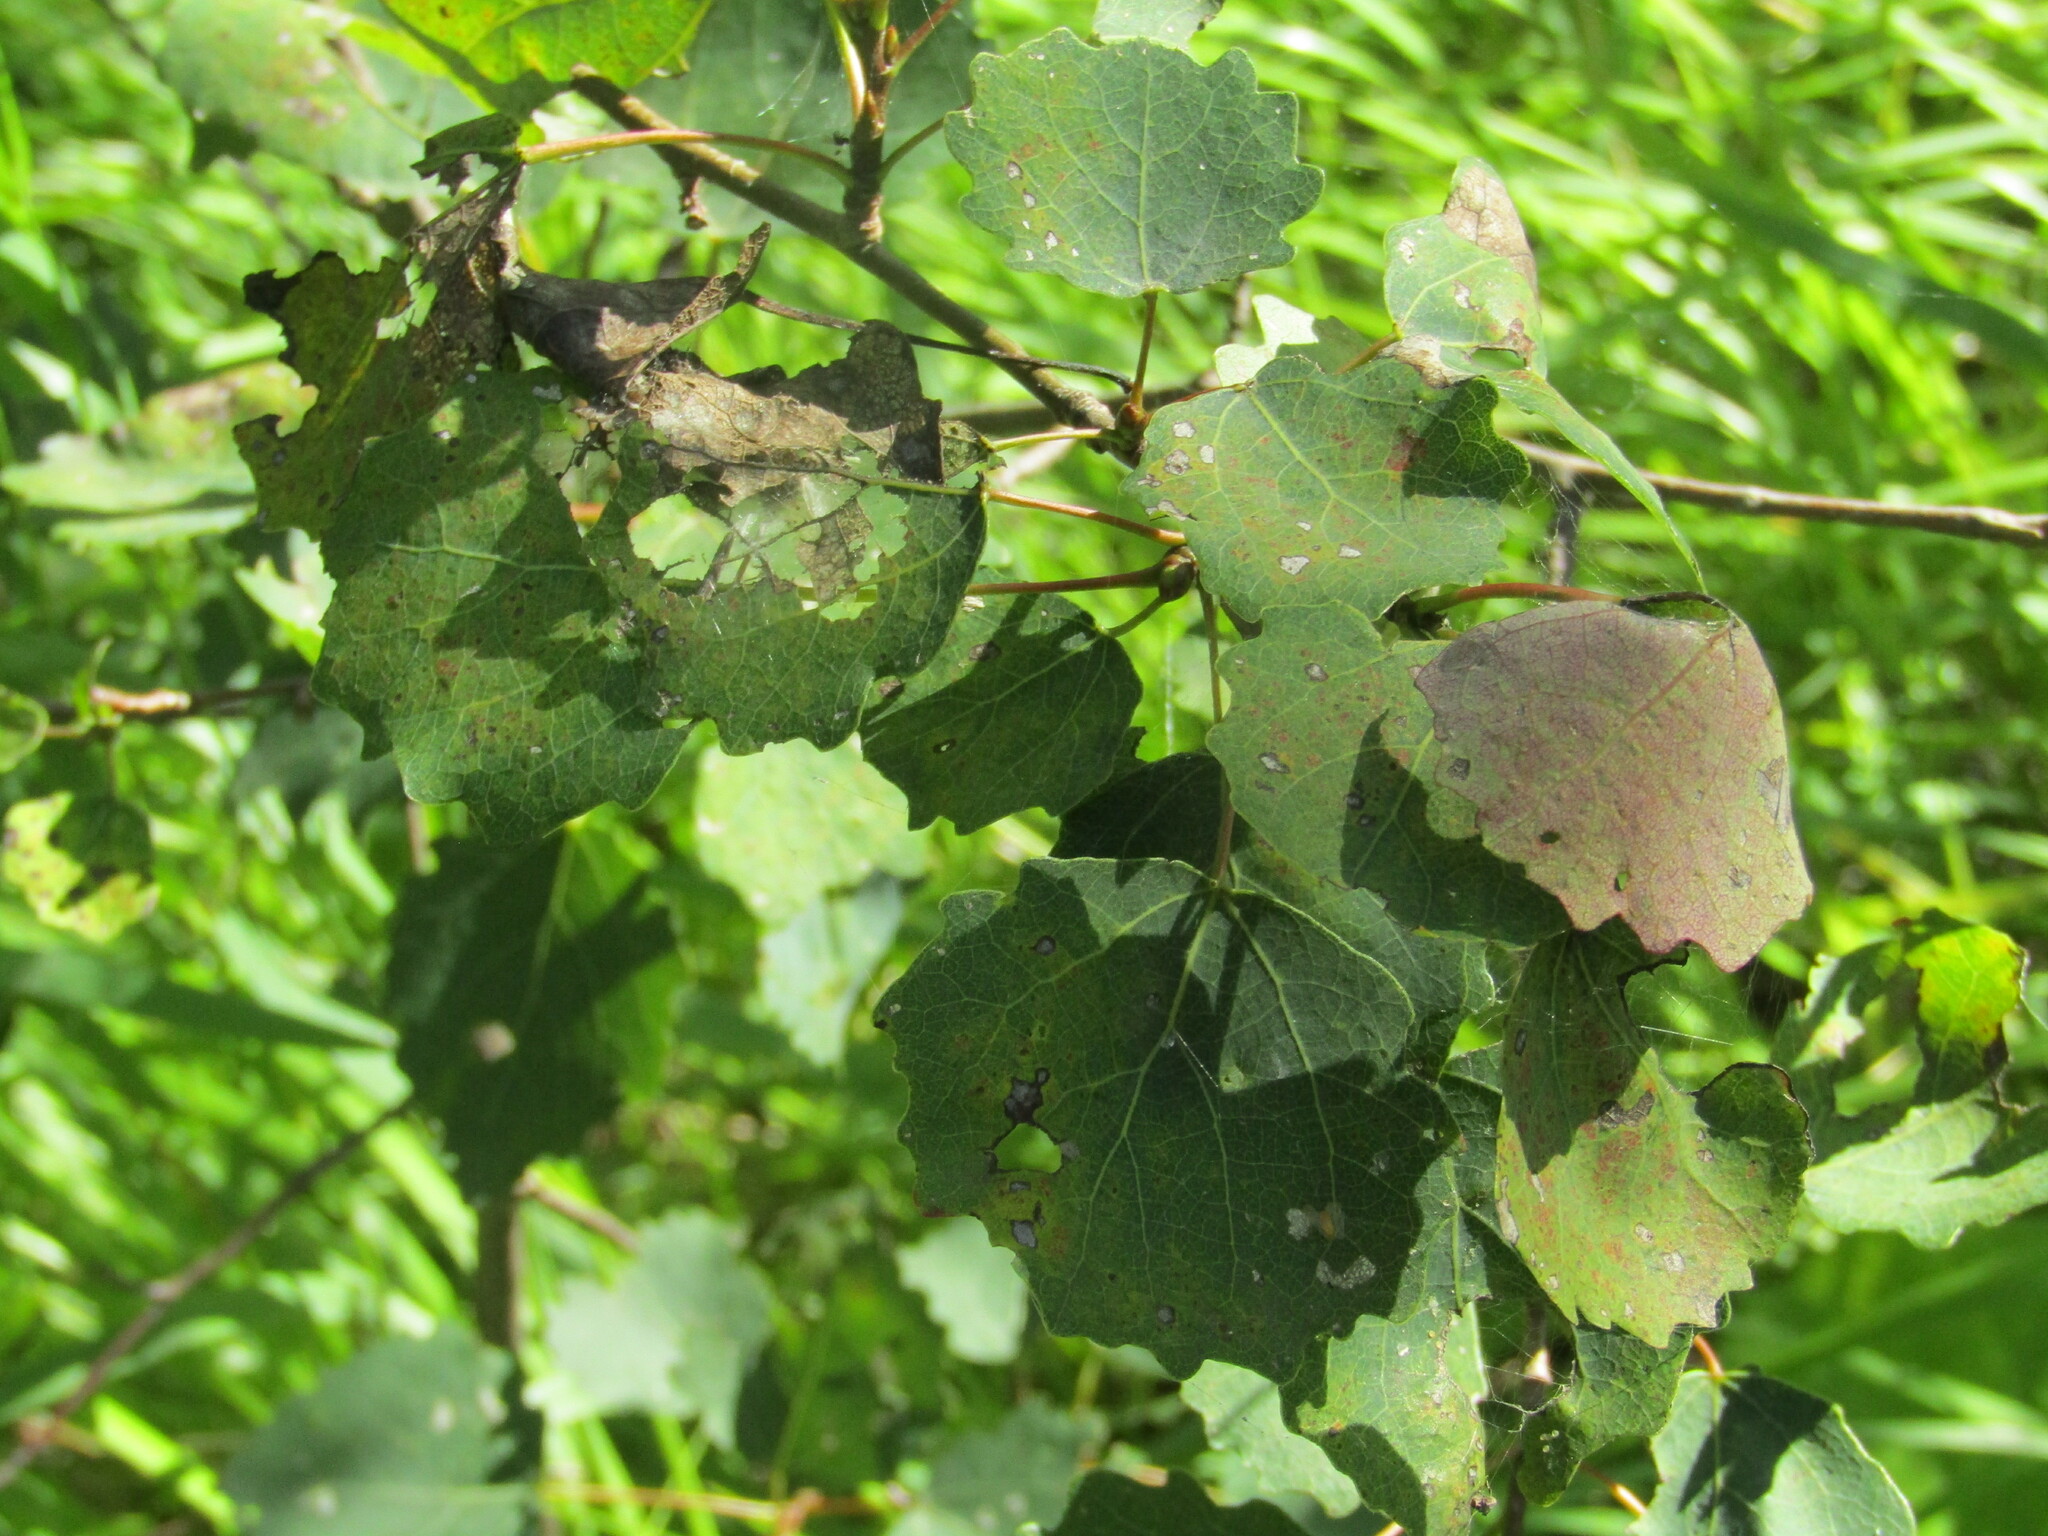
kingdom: Plantae
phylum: Tracheophyta
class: Magnoliopsida
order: Malpighiales
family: Salicaceae
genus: Populus
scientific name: Populus tremula
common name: European aspen
